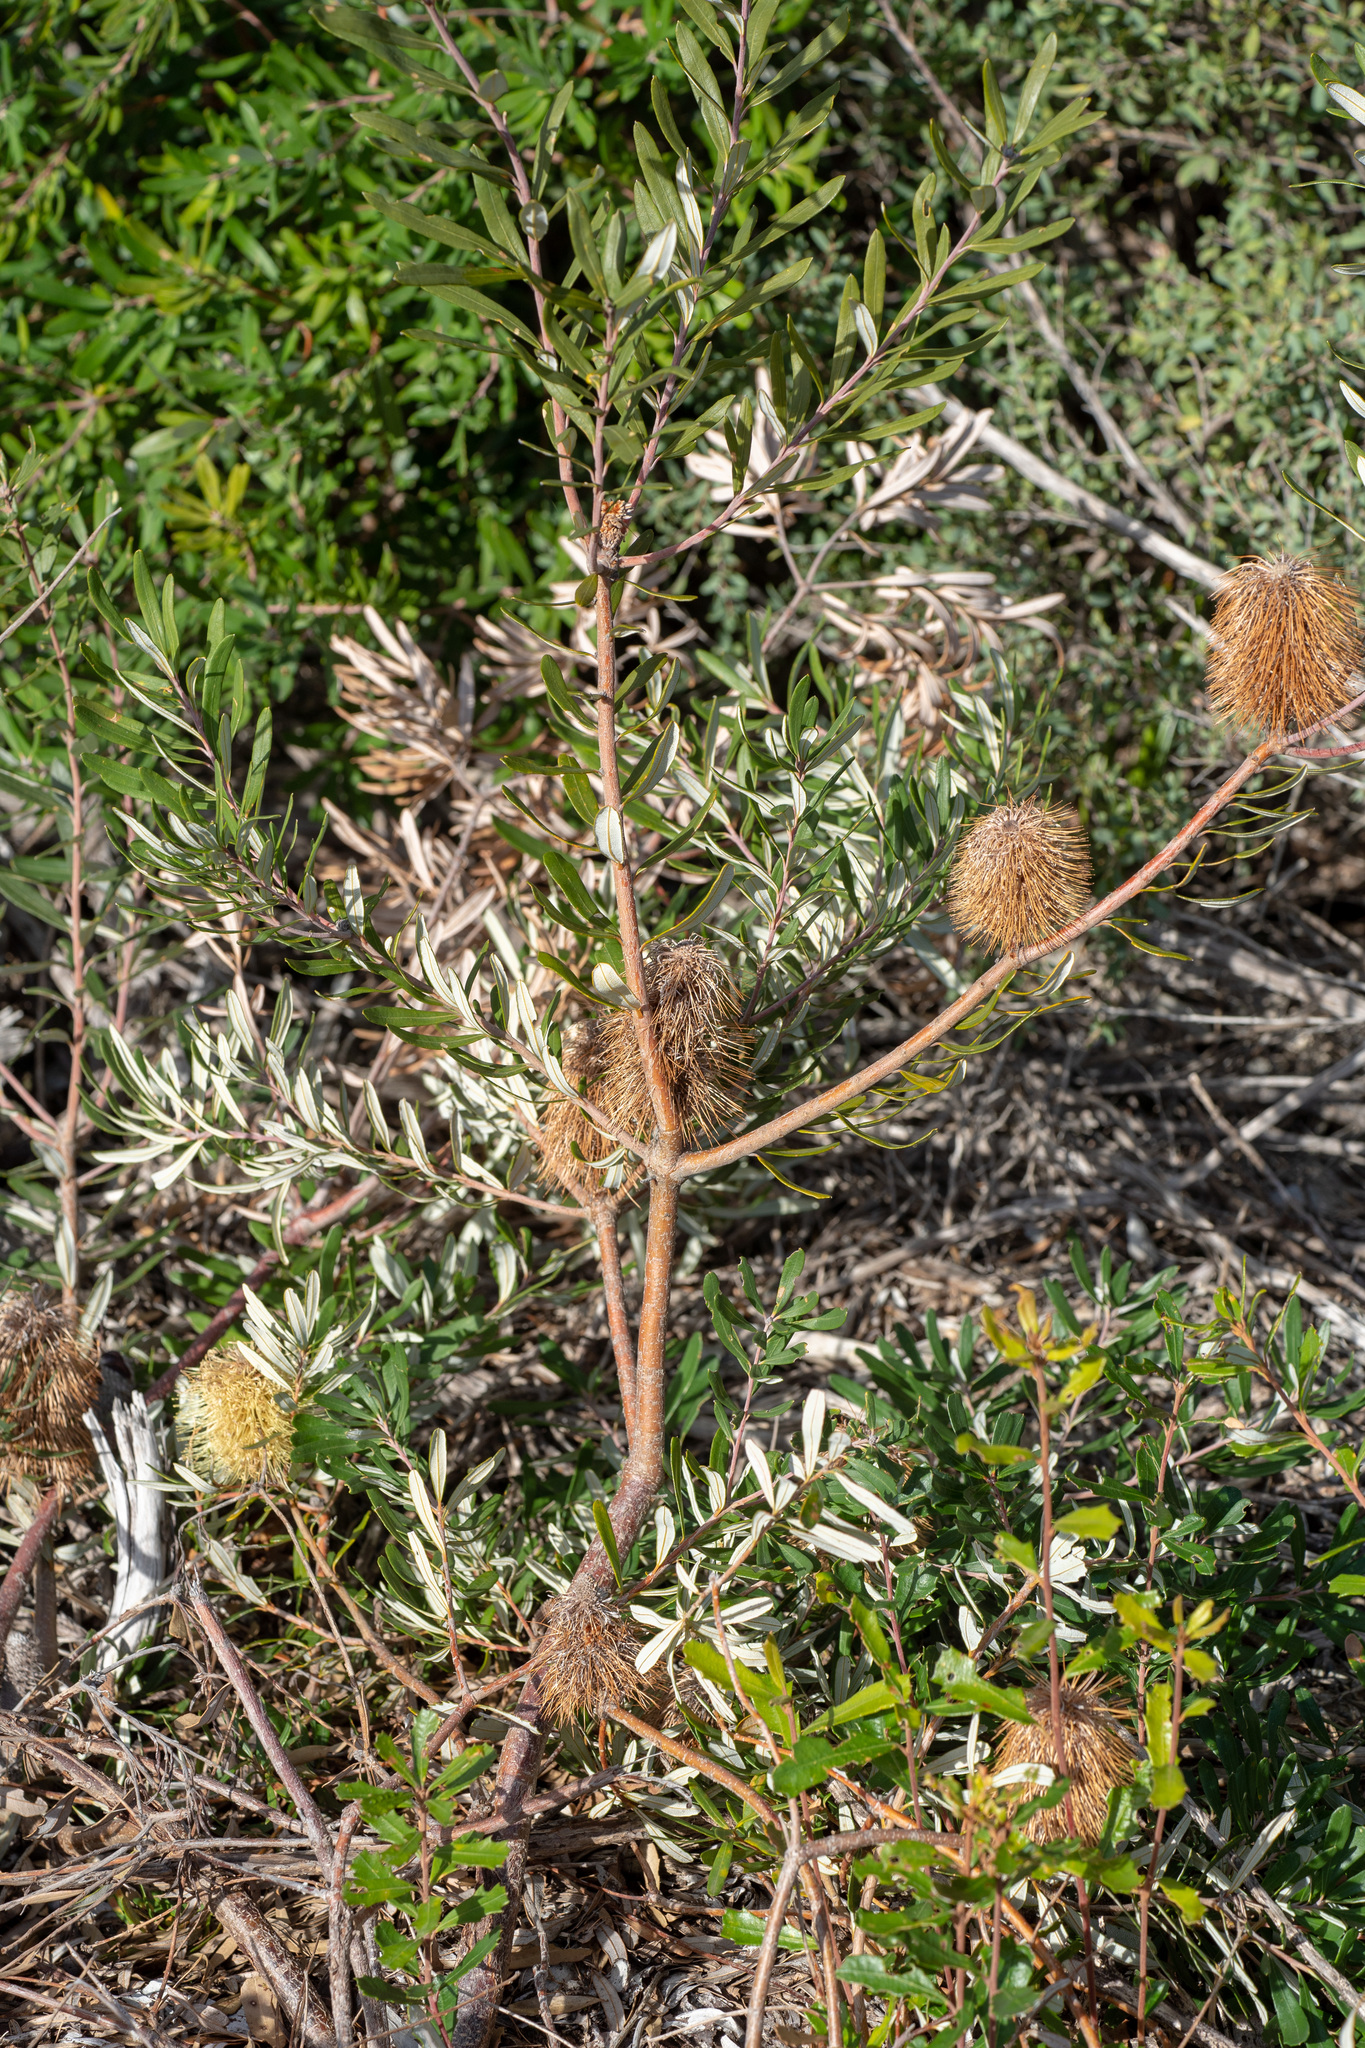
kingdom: Plantae
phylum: Tracheophyta
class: Magnoliopsida
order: Proteales
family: Proteaceae
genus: Banksia
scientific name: Banksia integrifolia
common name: White-honeysuckle
